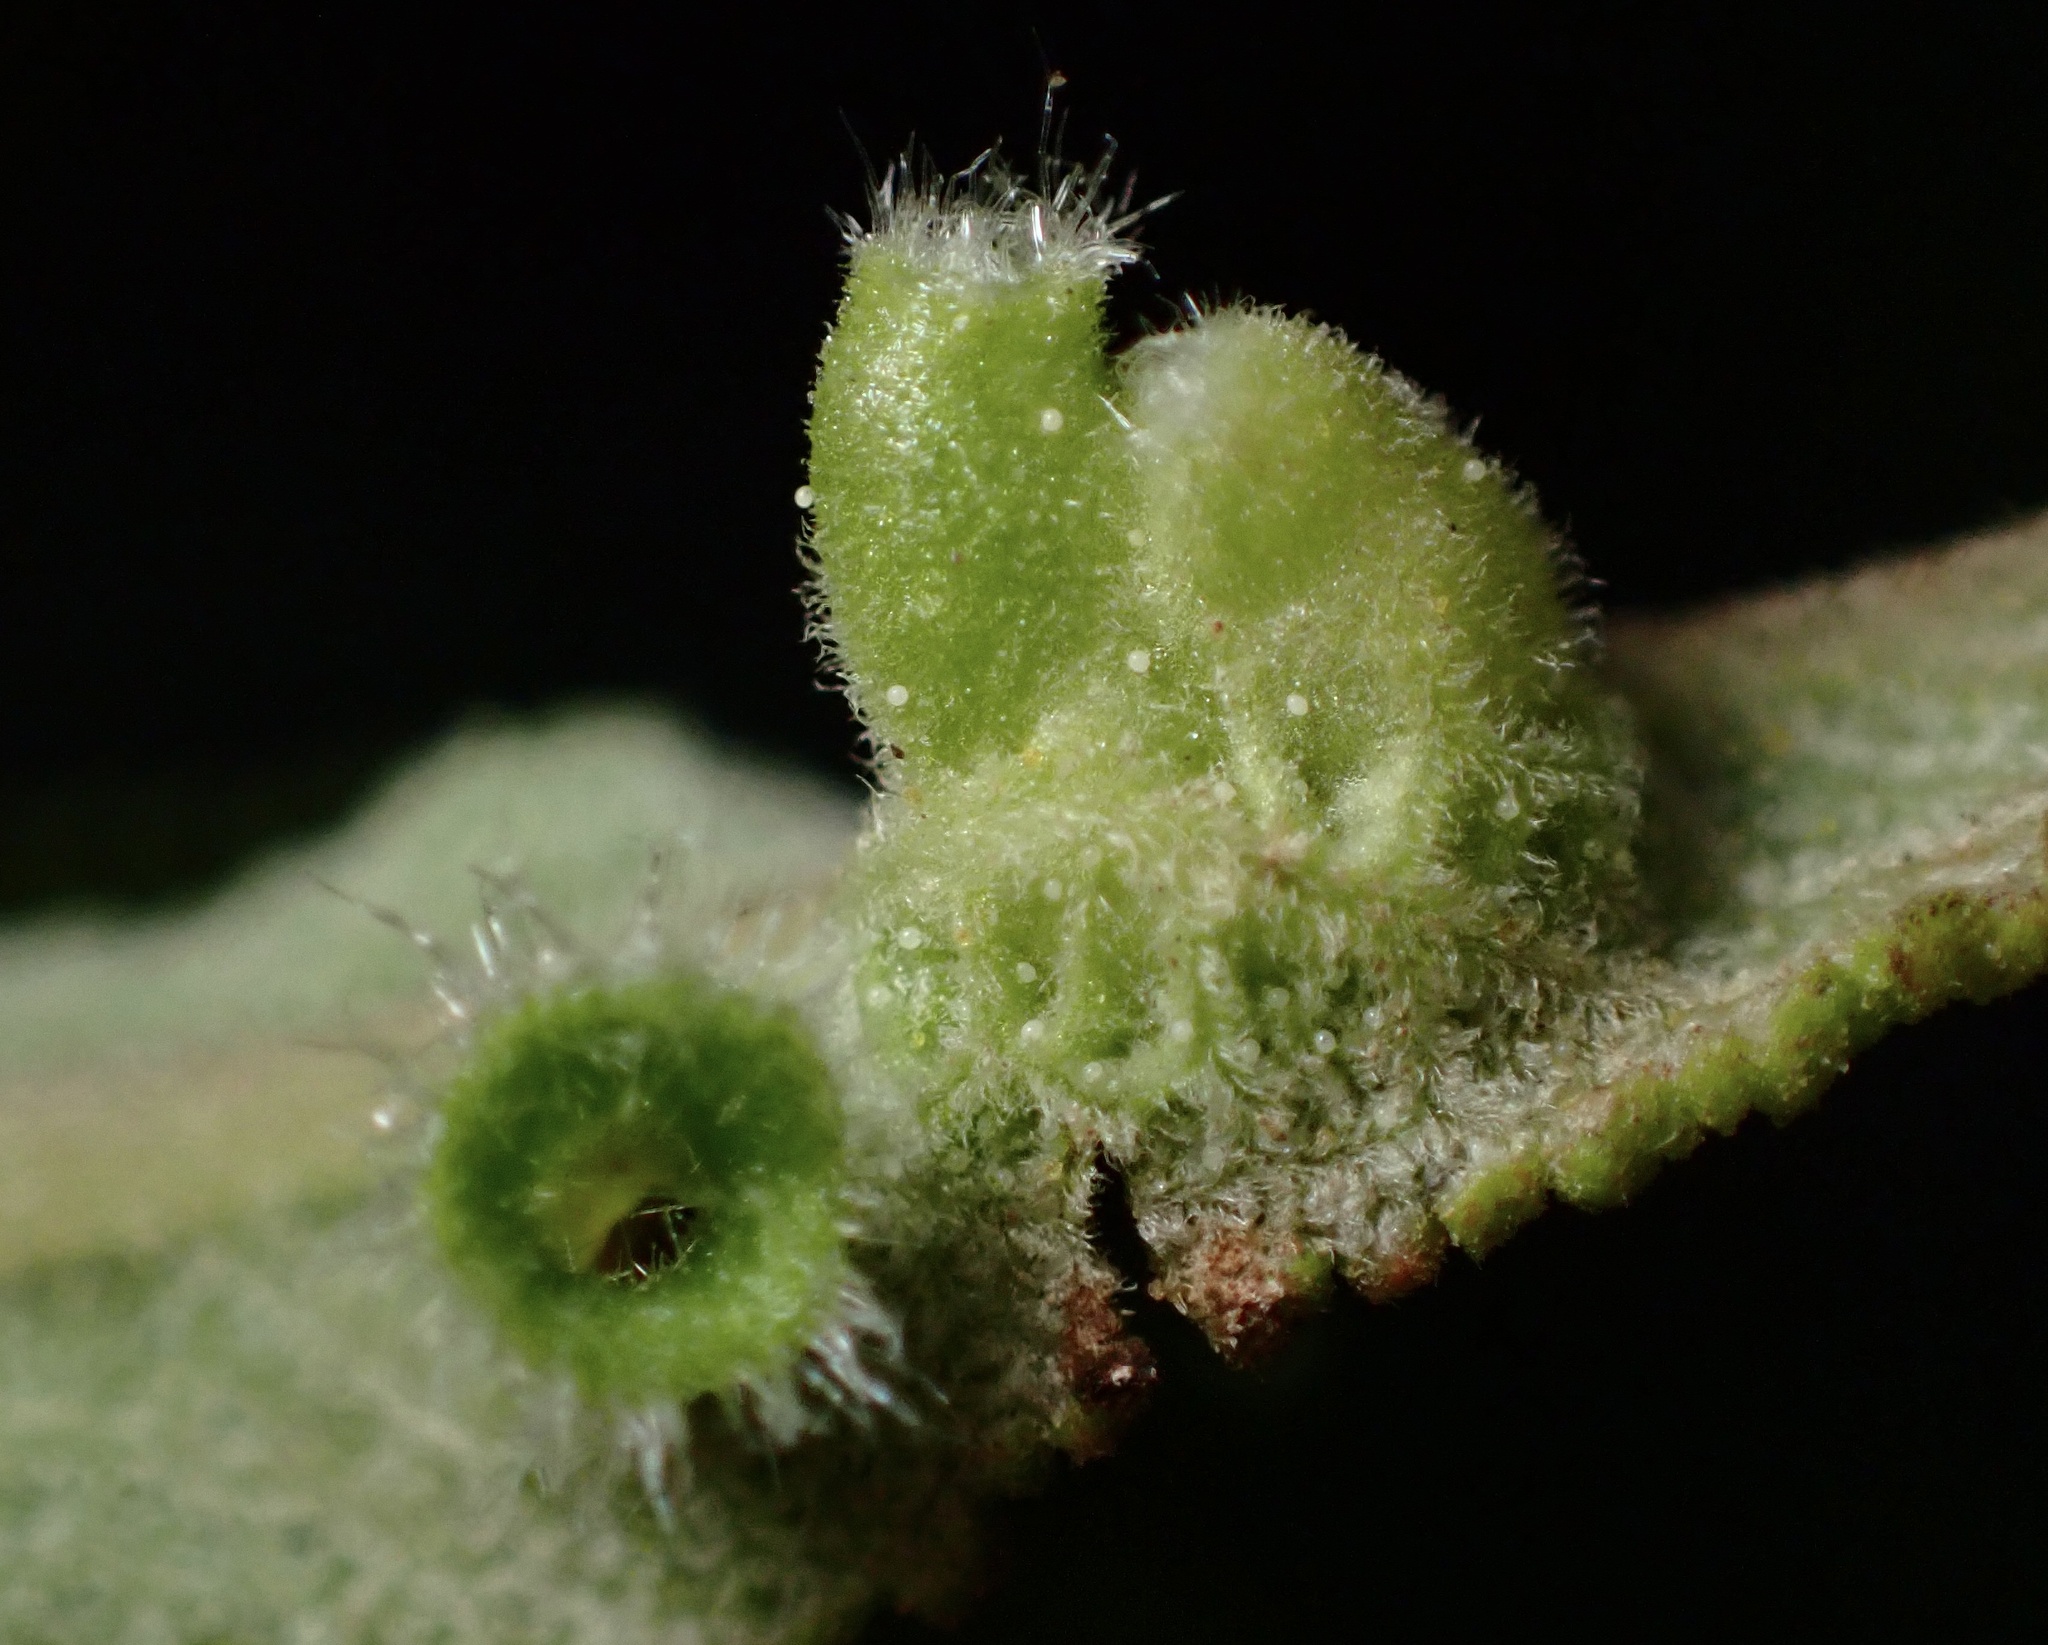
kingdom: Animalia
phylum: Arthropoda
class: Insecta
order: Diptera
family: Cecidomyiidae
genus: Rhopalomyia
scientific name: Rhopalomyia audibertiae
